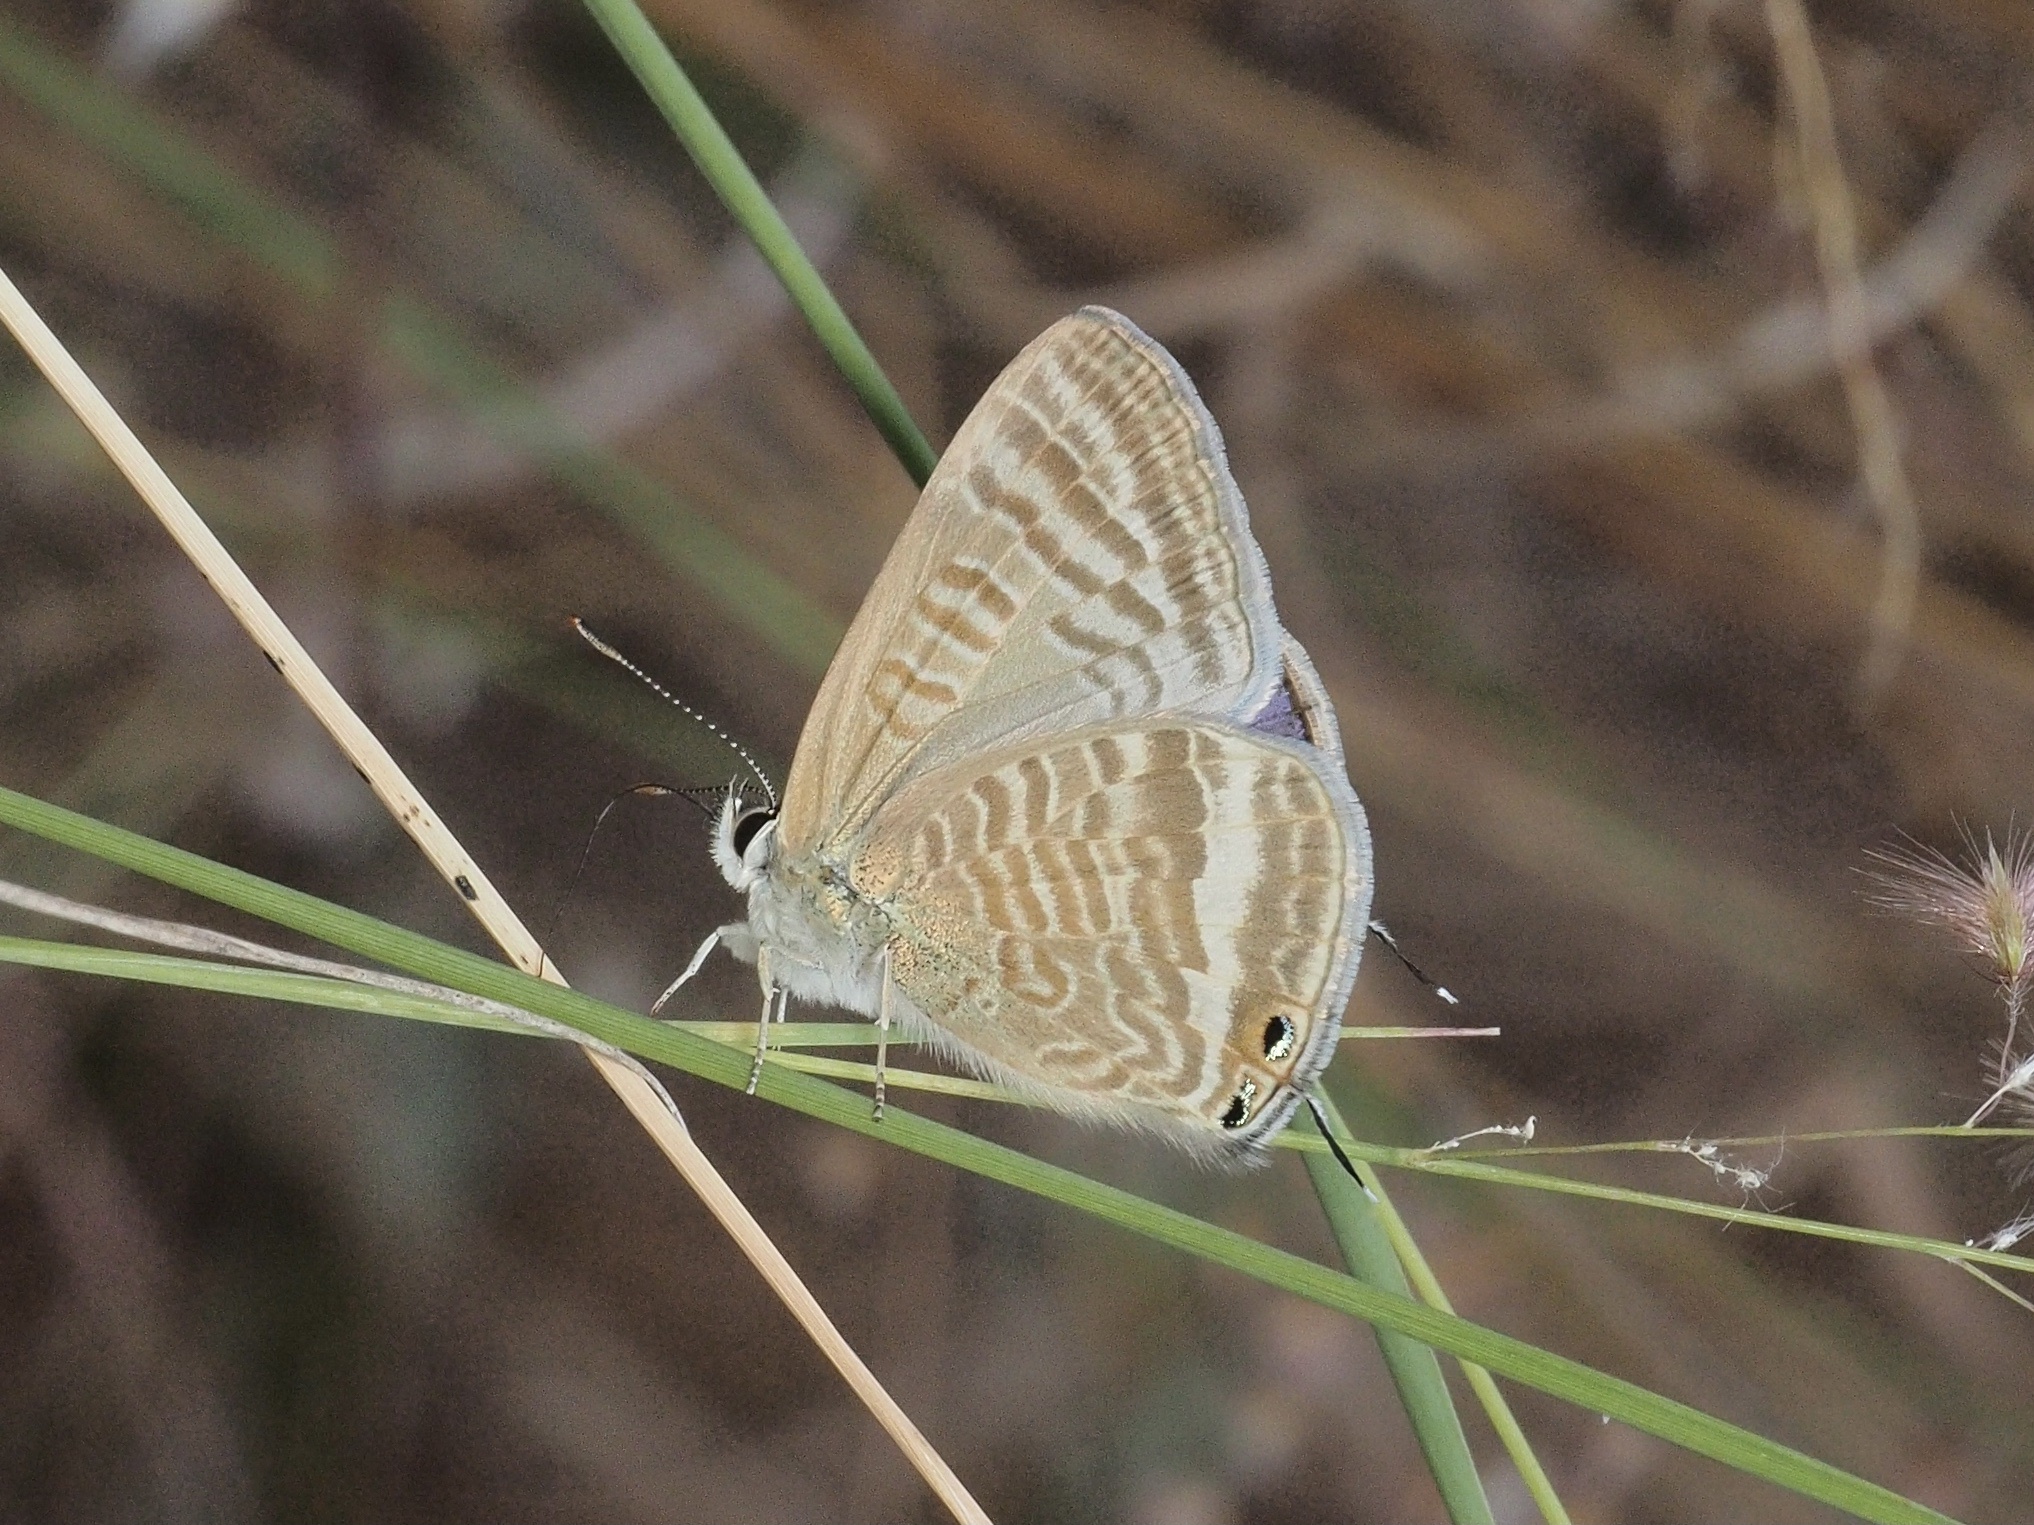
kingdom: Animalia
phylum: Arthropoda
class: Insecta
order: Lepidoptera
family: Lycaenidae
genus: Lampides
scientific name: Lampides boeticus
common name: Long-tailed blue
